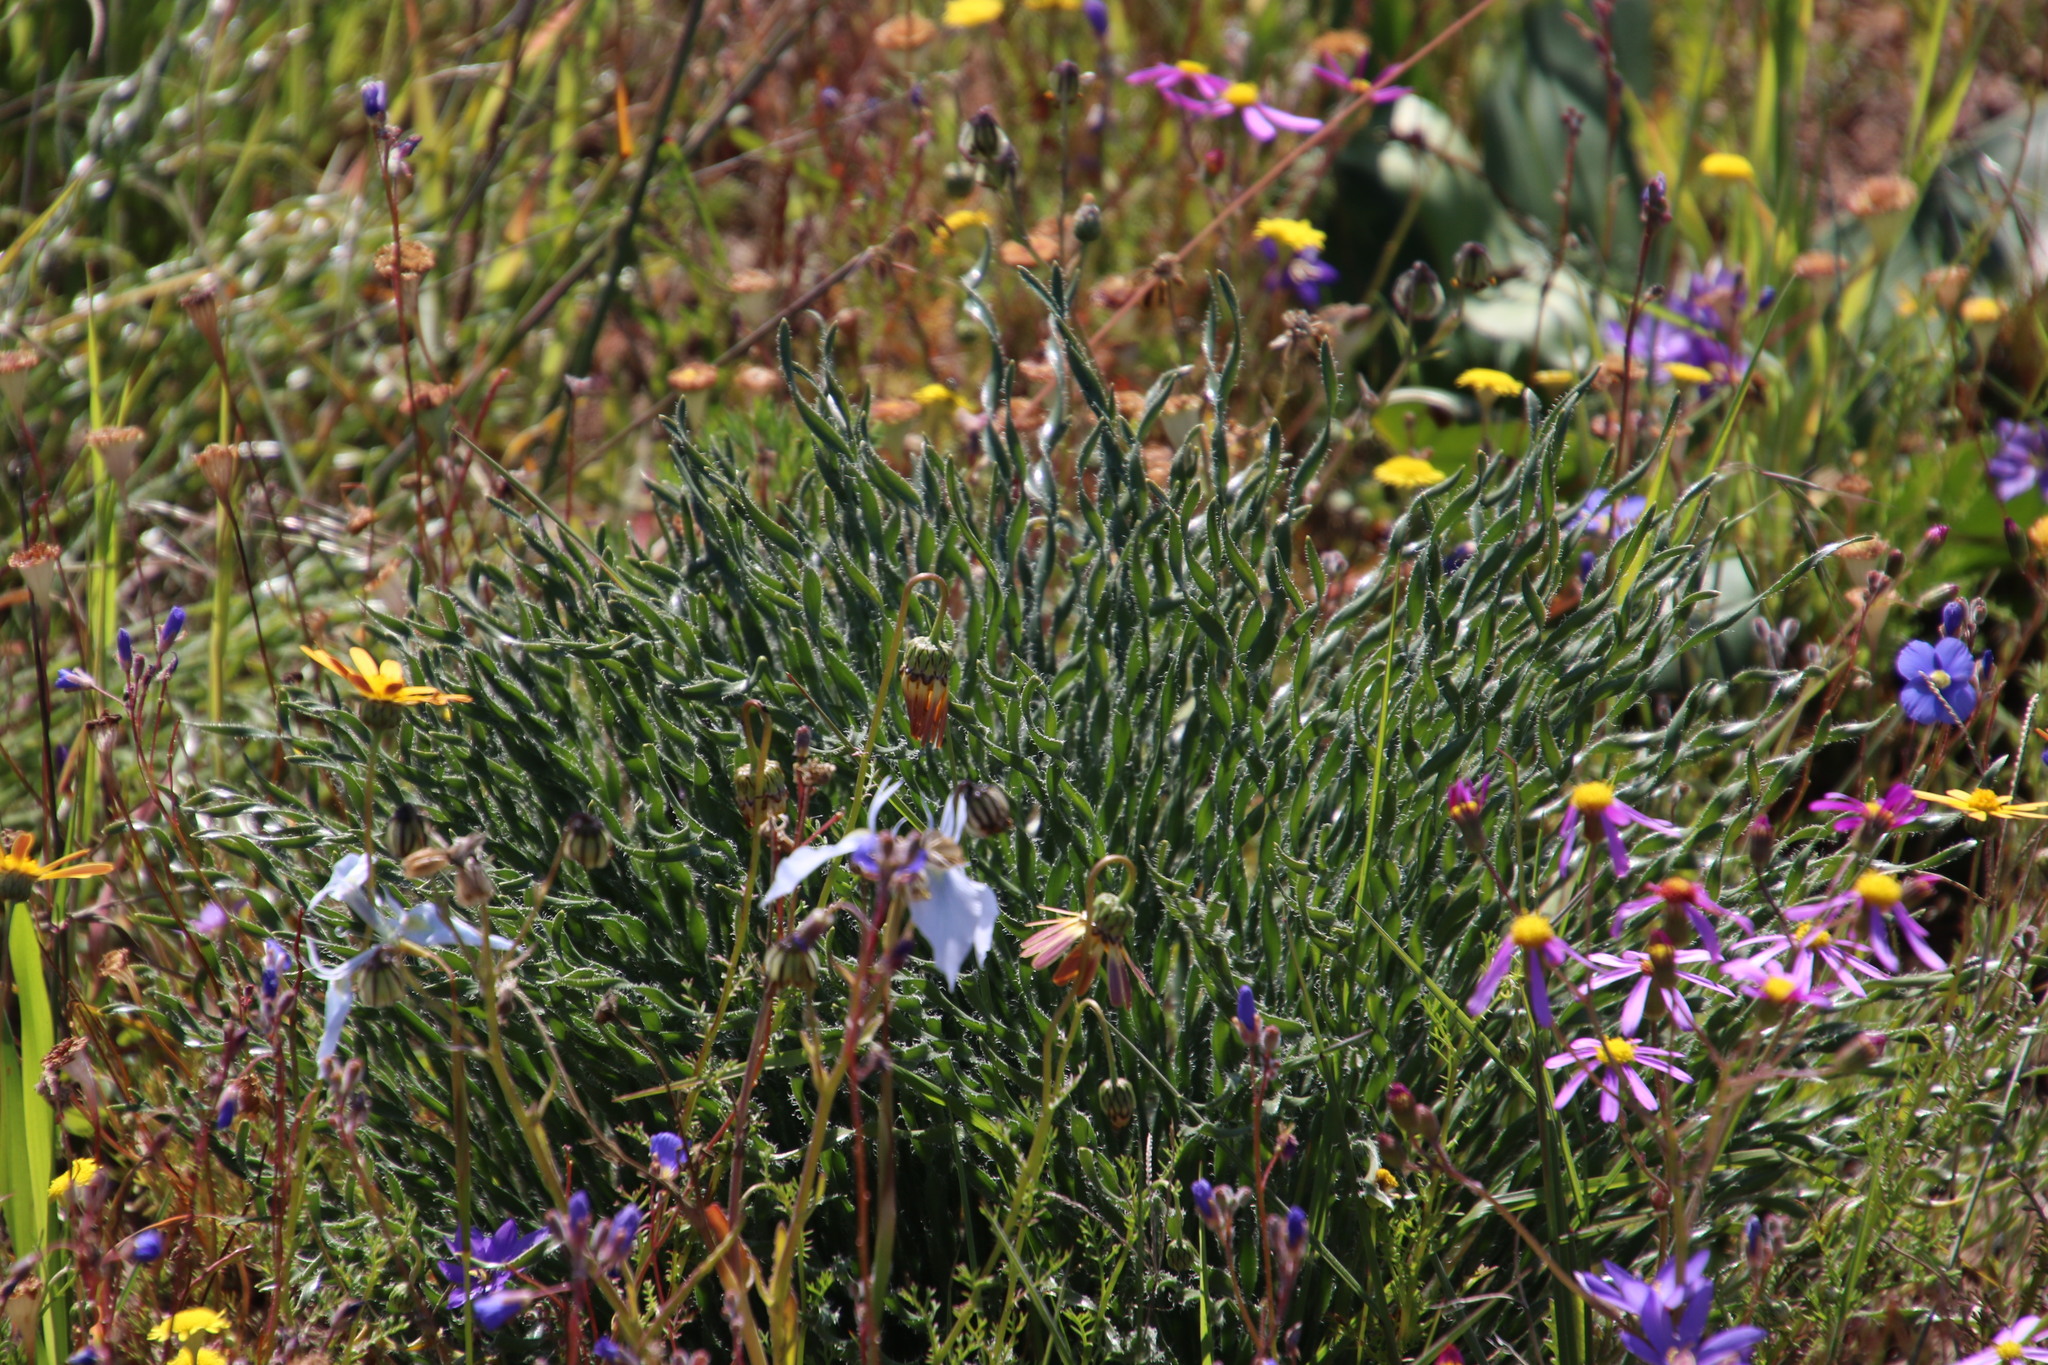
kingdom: Plantae
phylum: Tracheophyta
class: Liliopsida
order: Asparagales
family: Amaryllidaceae
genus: Gethyllis
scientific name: Gethyllis ciliaris
